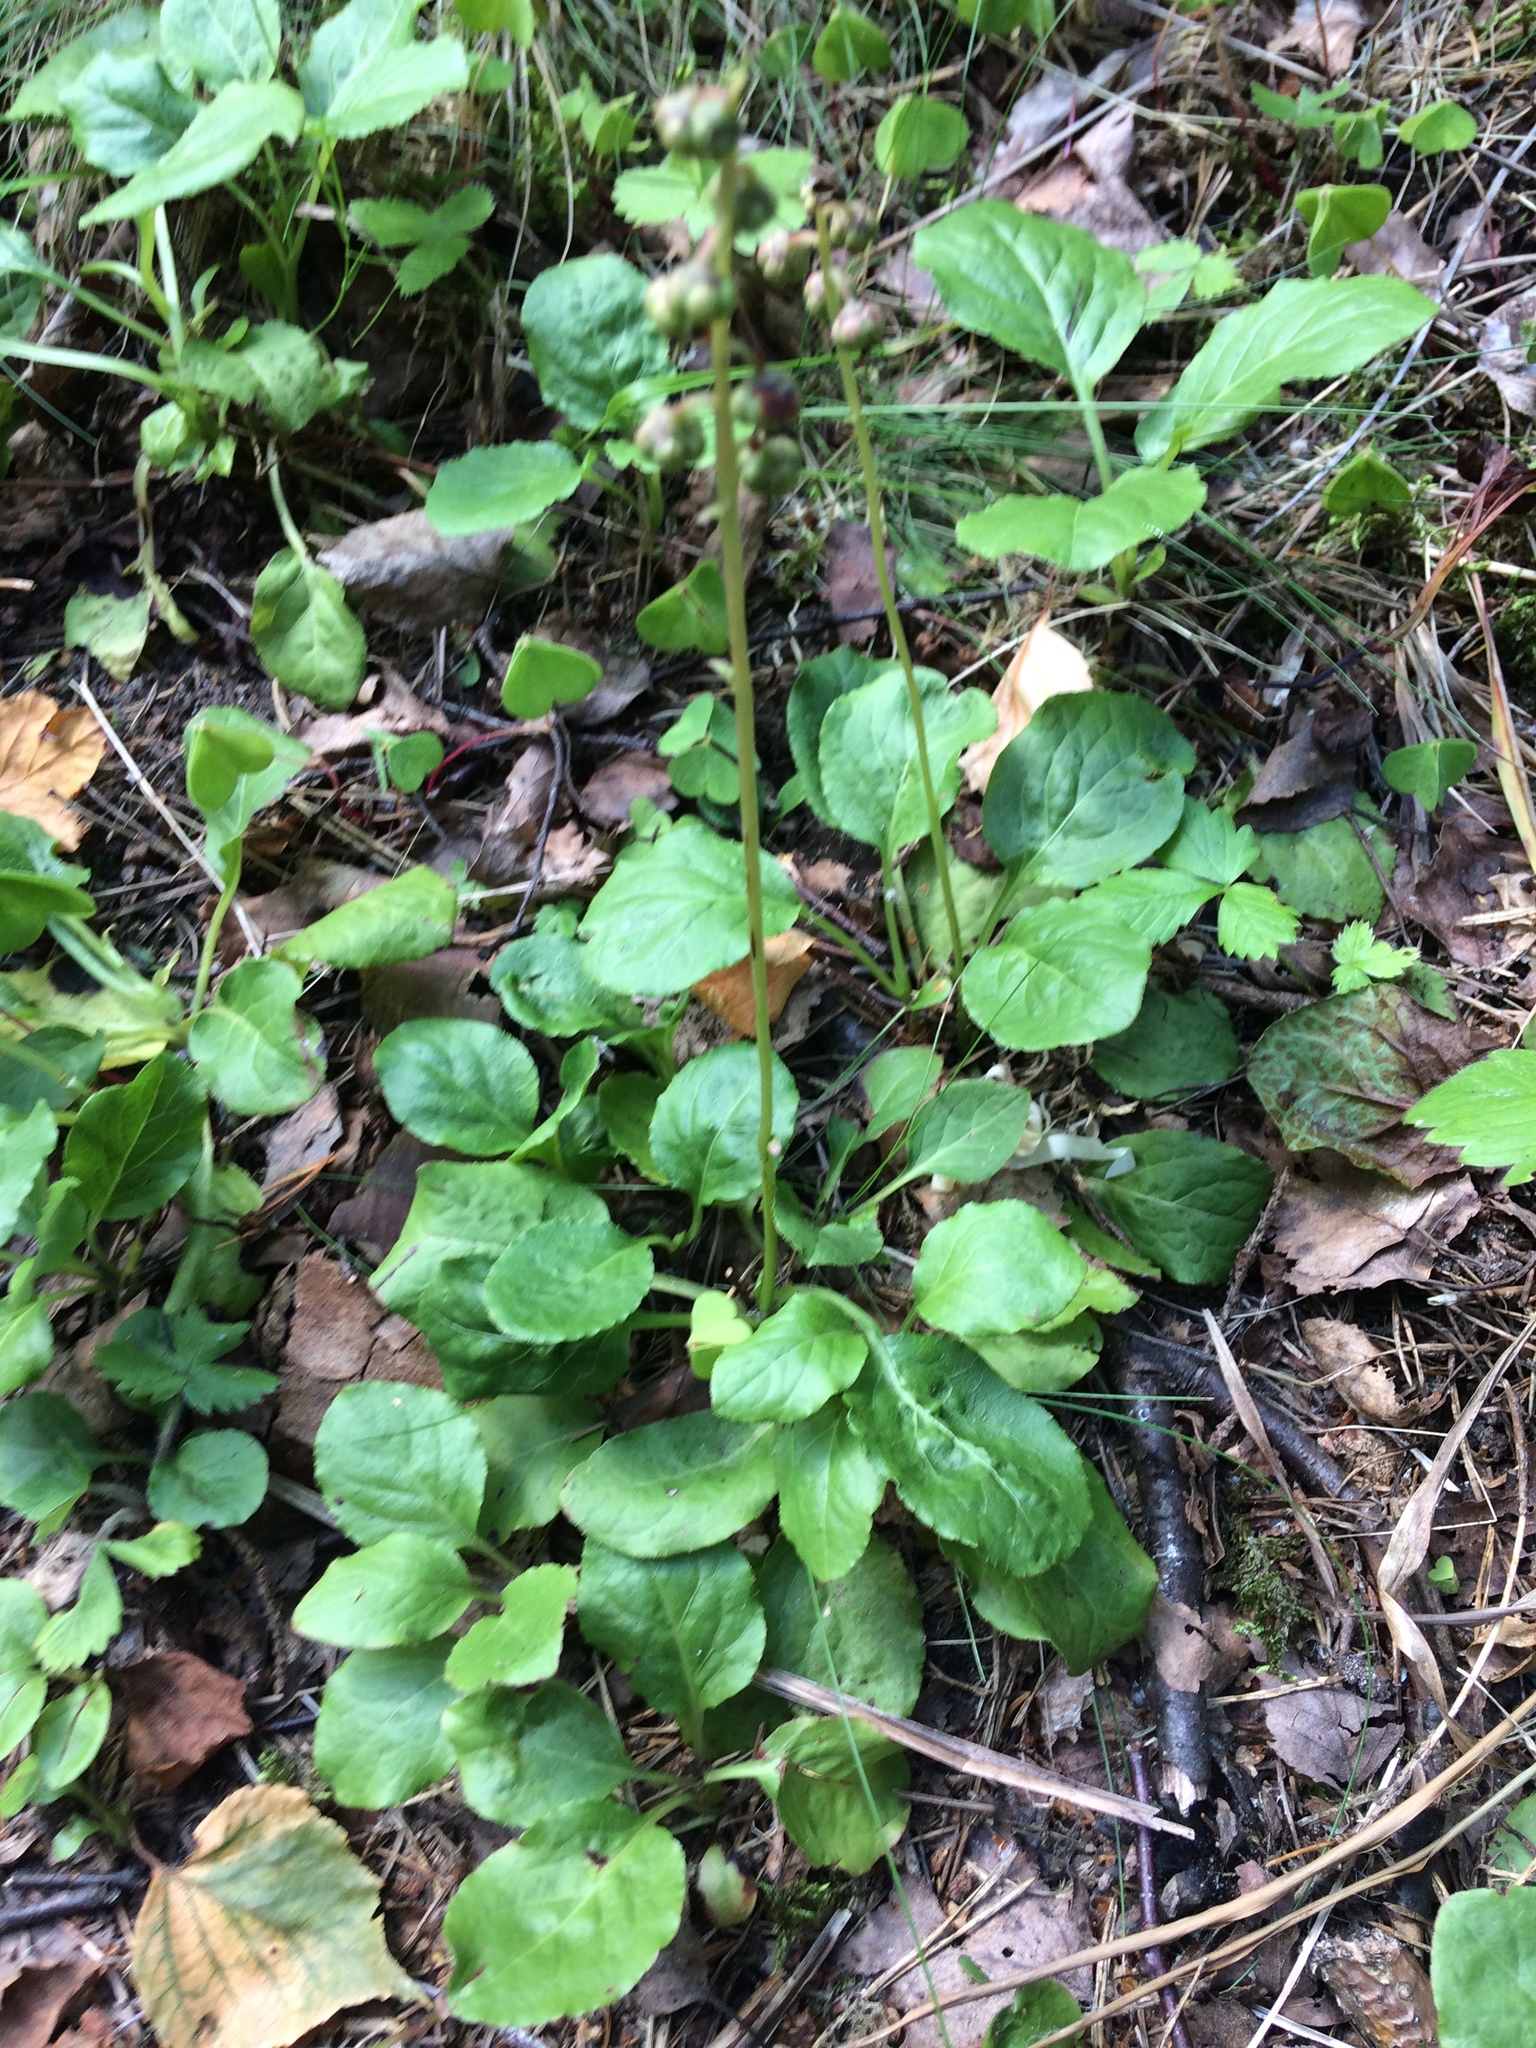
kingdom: Plantae
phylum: Tracheophyta
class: Magnoliopsida
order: Ericales
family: Ericaceae
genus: Pyrola
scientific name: Pyrola minor
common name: Common wintergreen
